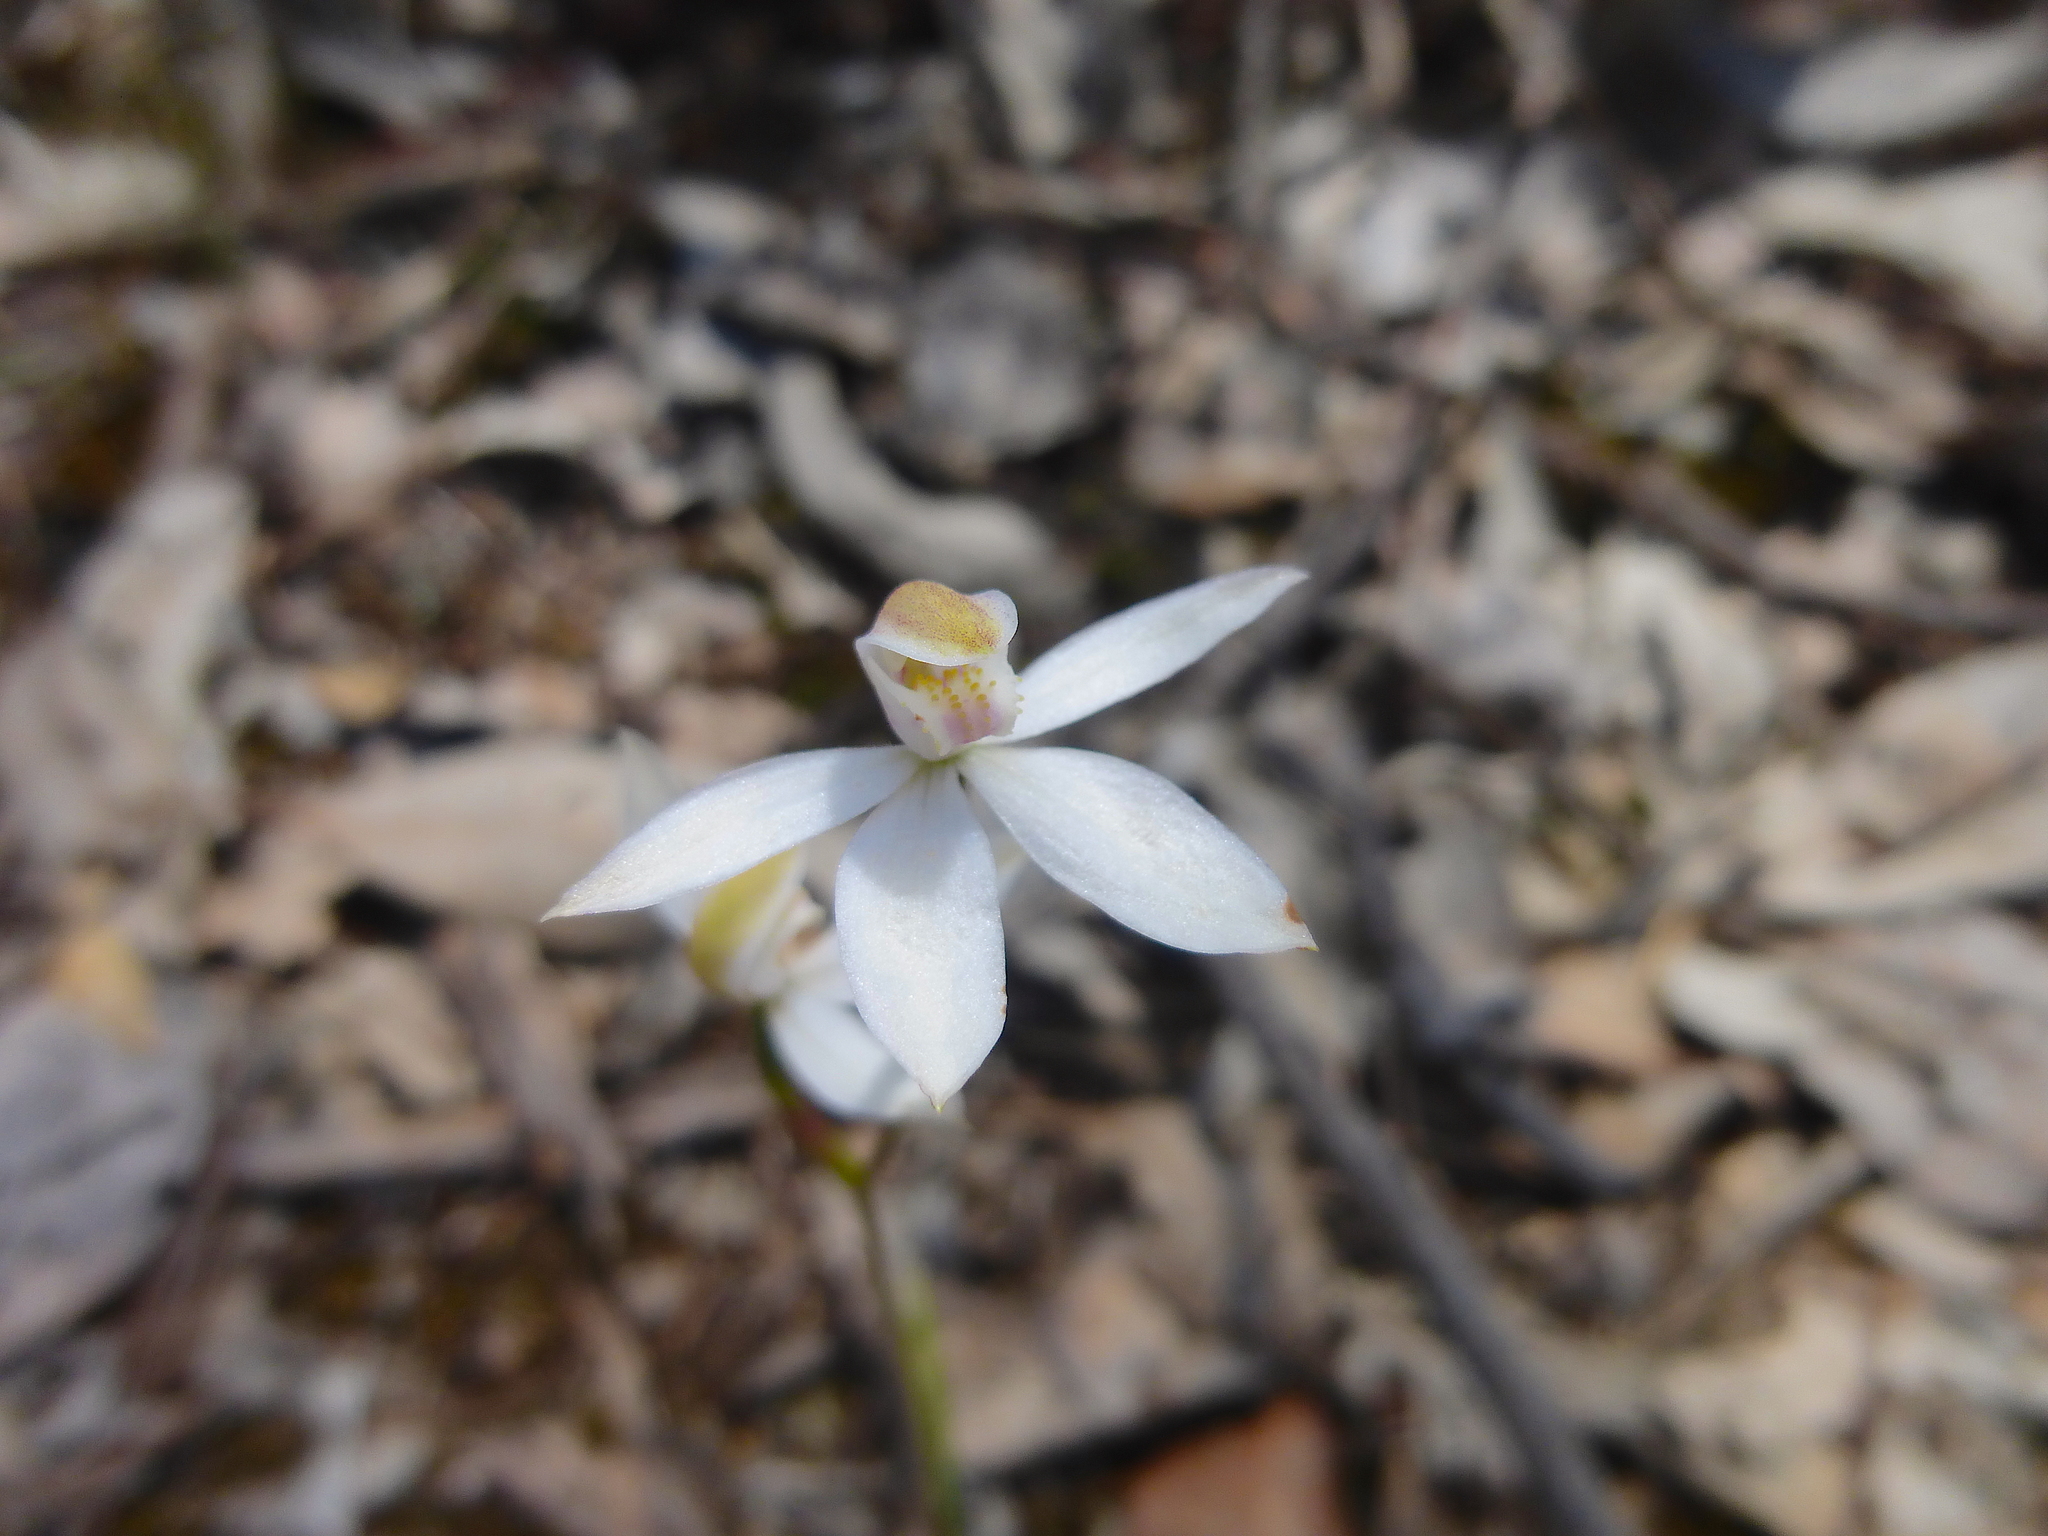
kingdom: Plantae
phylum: Tracheophyta
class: Liliopsida
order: Asparagales
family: Orchidaceae
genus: Caladenia
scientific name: Caladenia moschata
